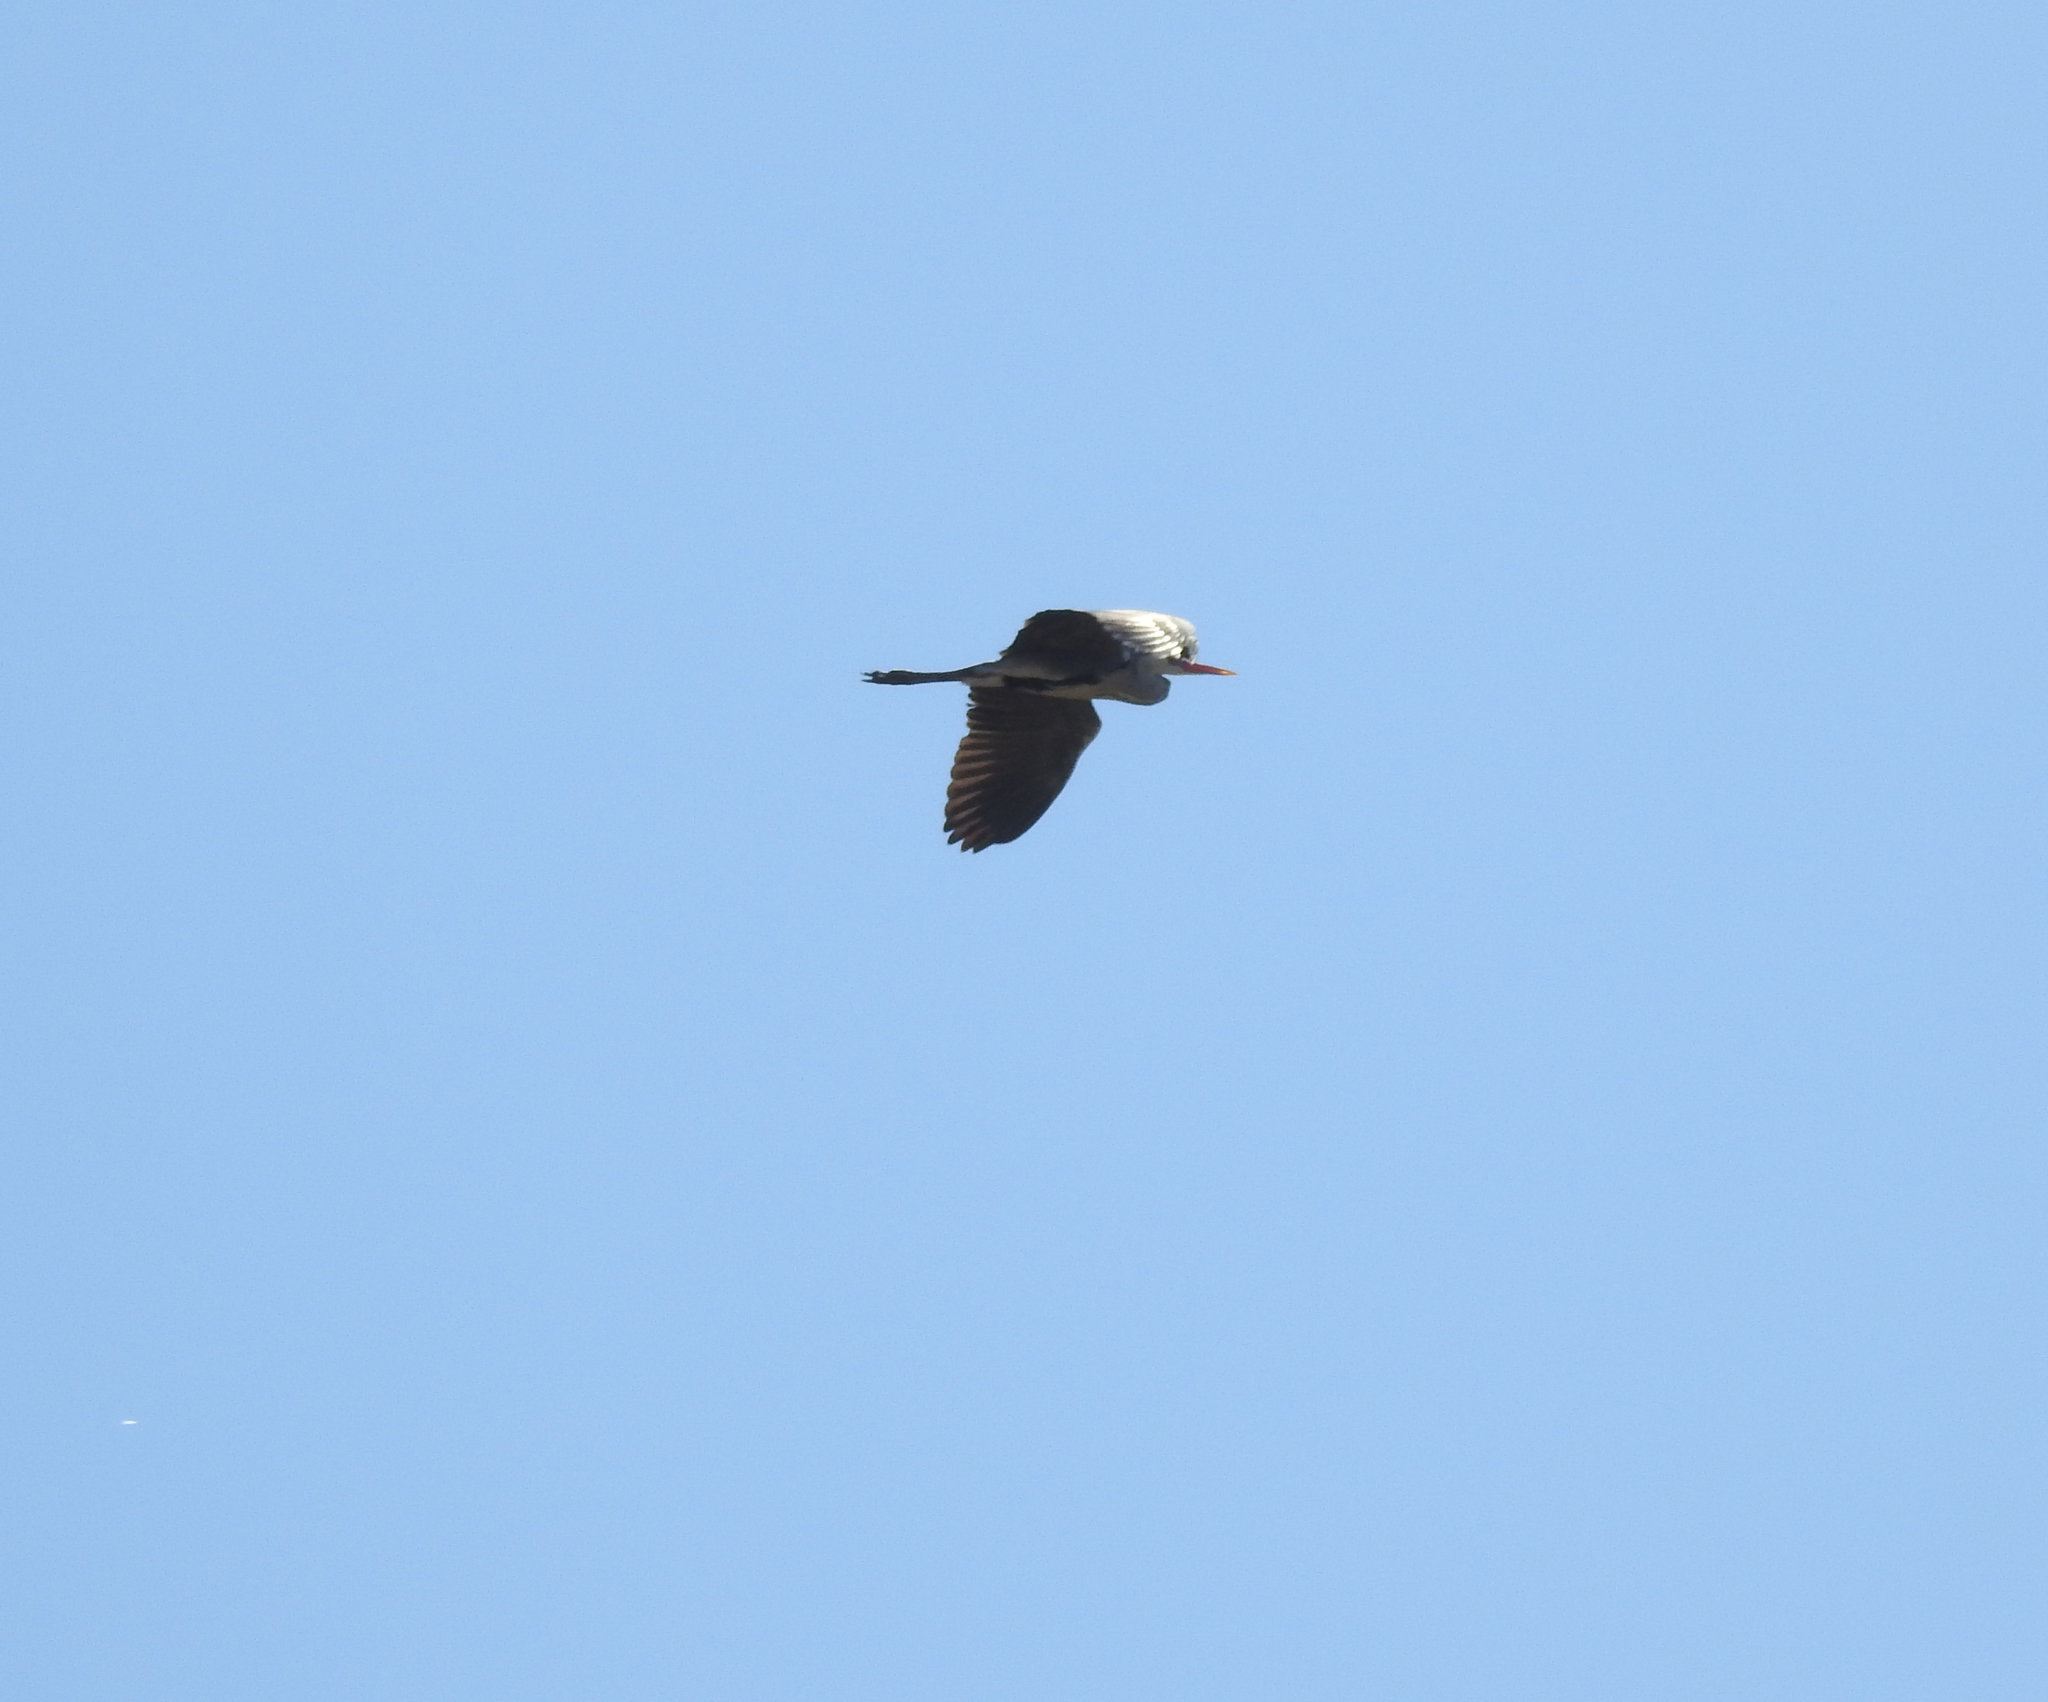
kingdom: Animalia
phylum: Chordata
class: Aves
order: Pelecaniformes
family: Ardeidae
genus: Ardea
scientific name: Ardea cinerea
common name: Grey heron
